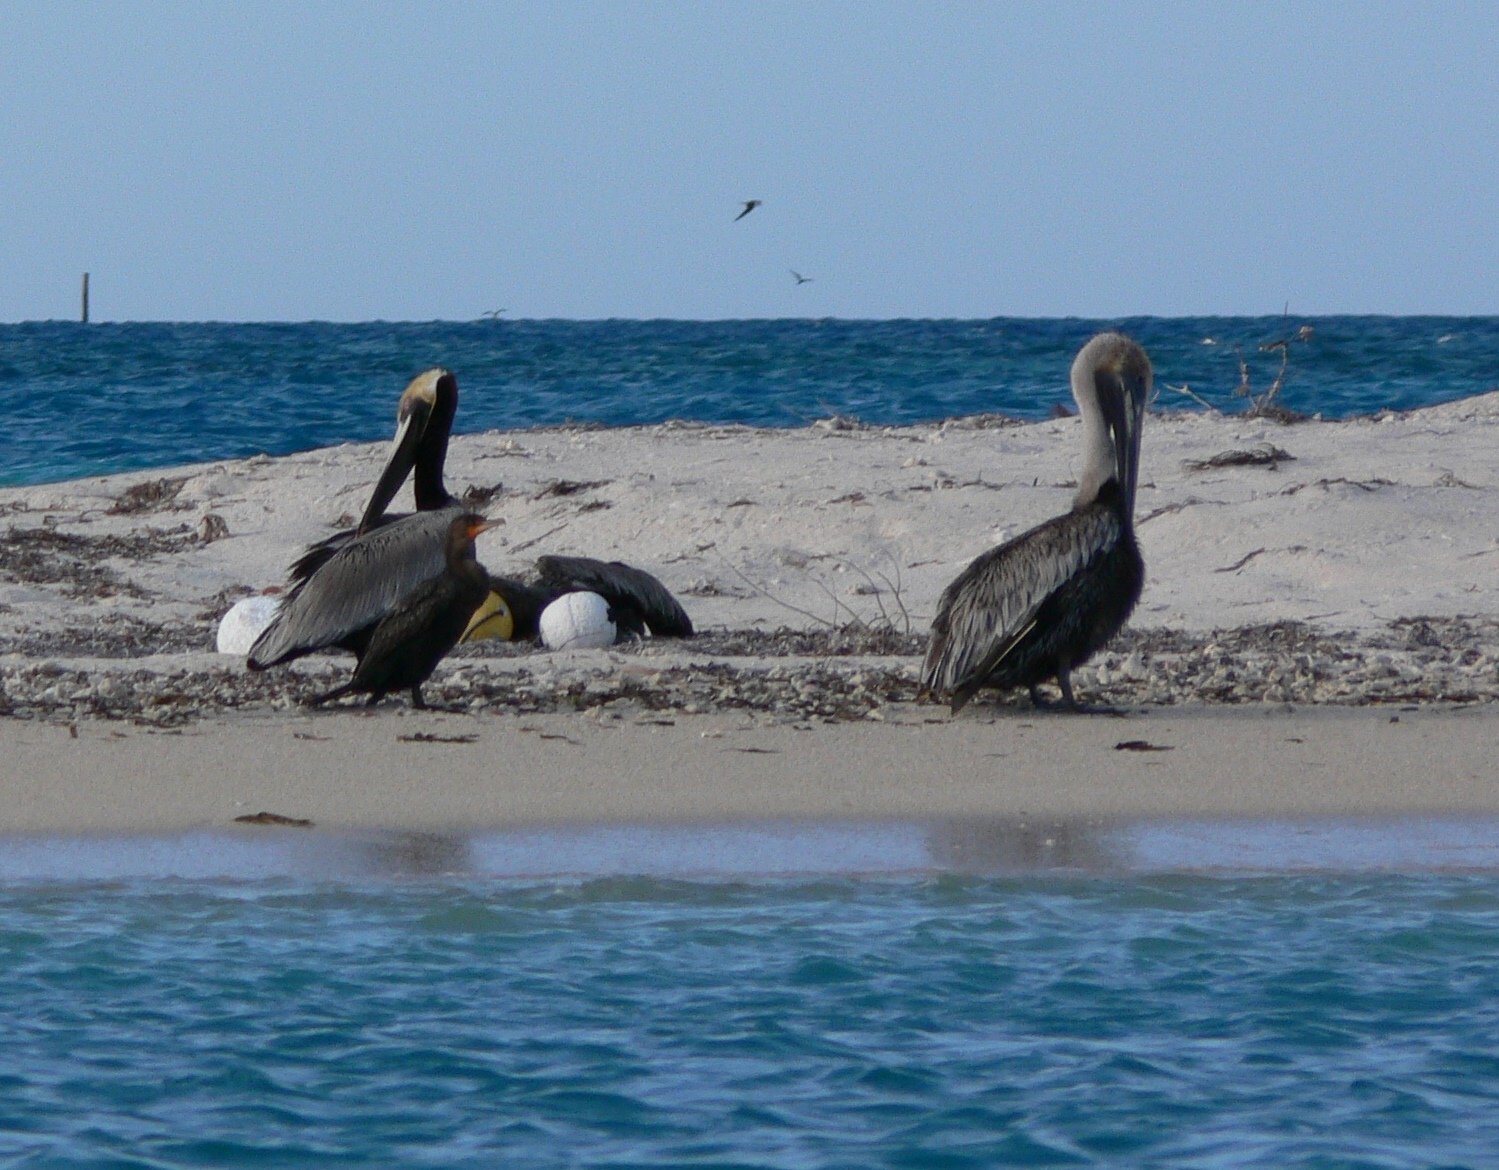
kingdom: Animalia
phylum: Chordata
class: Aves
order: Pelecaniformes
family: Pelecanidae
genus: Pelecanus
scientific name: Pelecanus occidentalis
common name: Brown pelican
